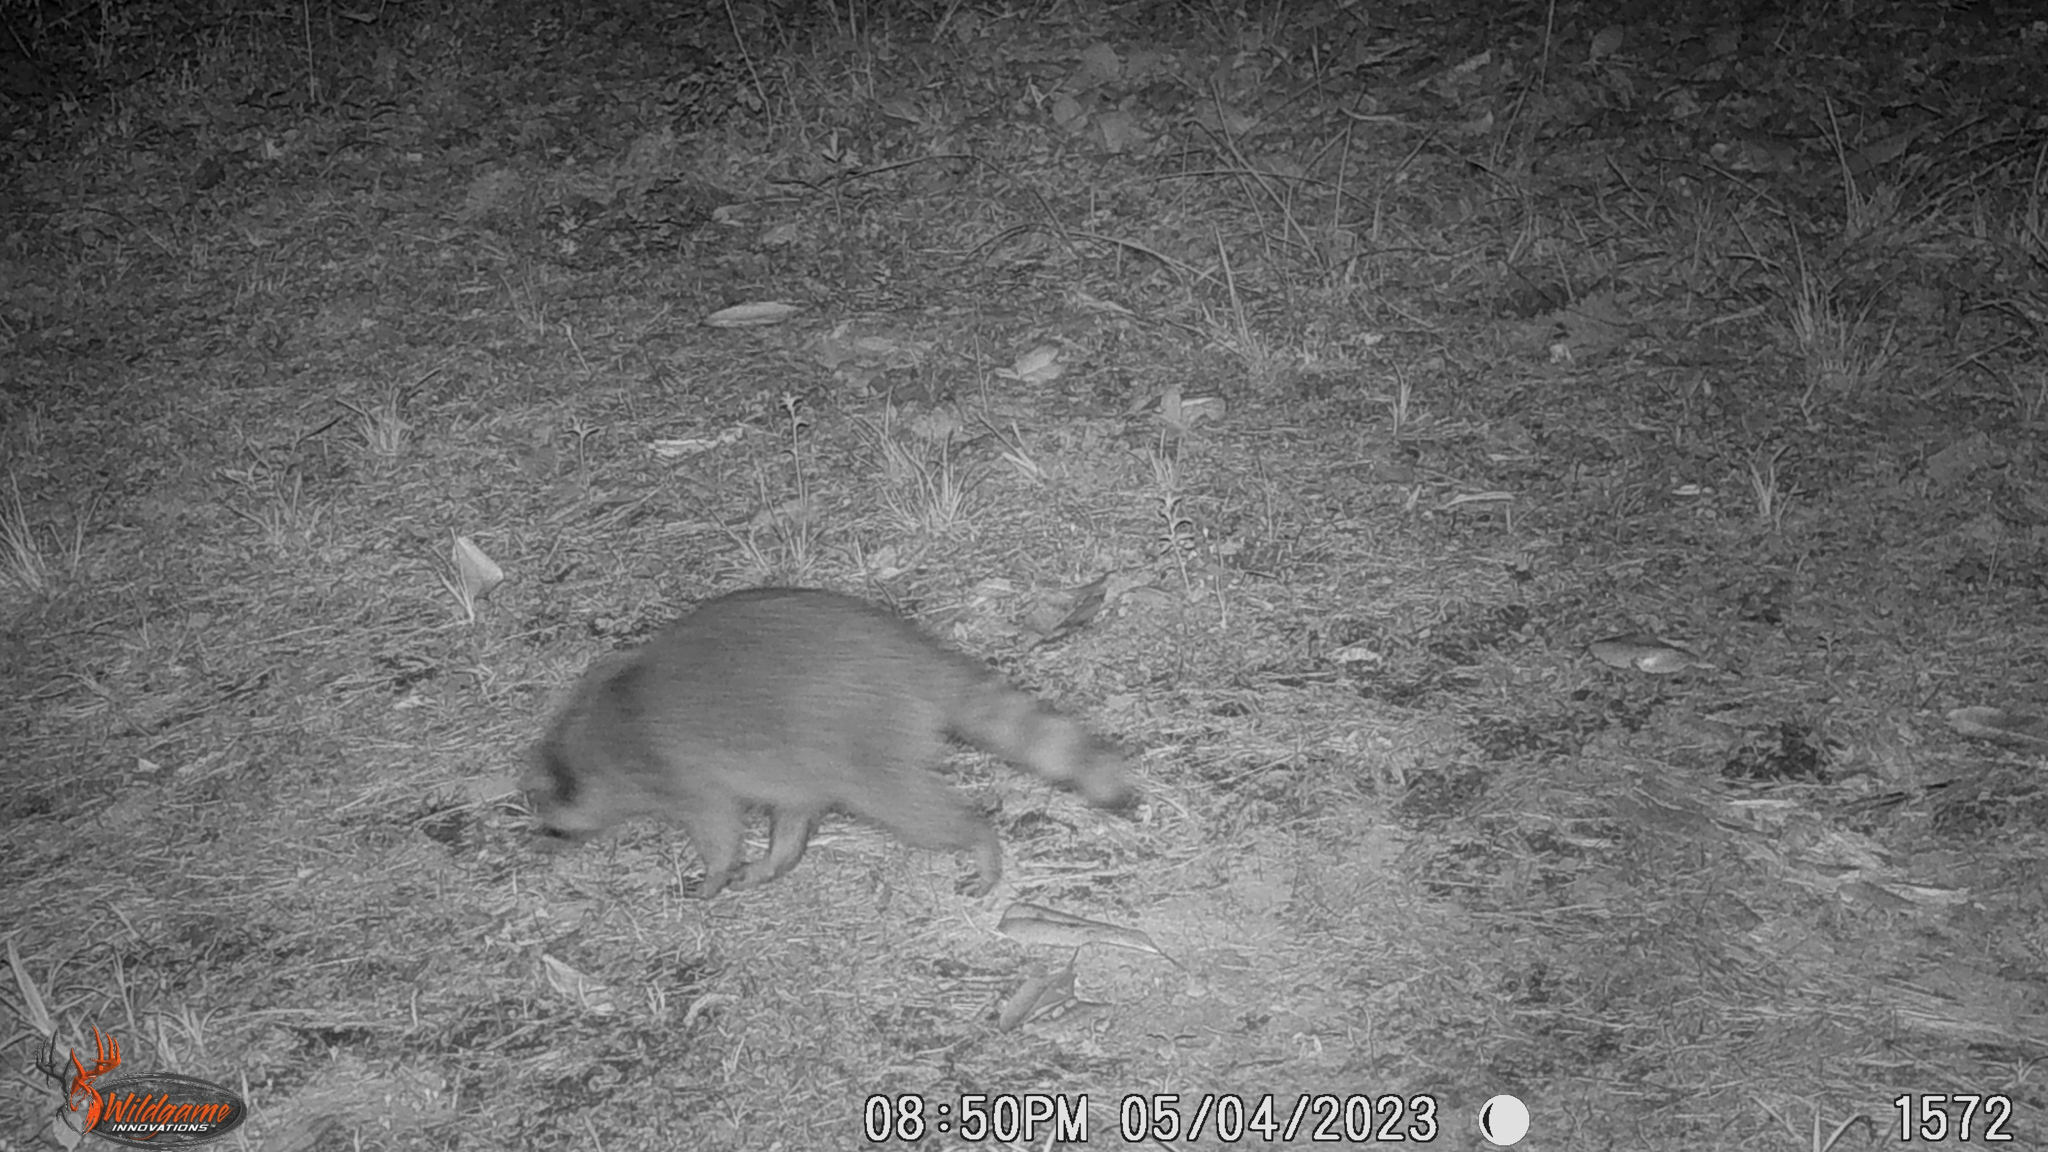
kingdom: Animalia
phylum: Chordata
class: Mammalia
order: Carnivora
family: Procyonidae
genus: Procyon
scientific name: Procyon lotor
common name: Raccoon
